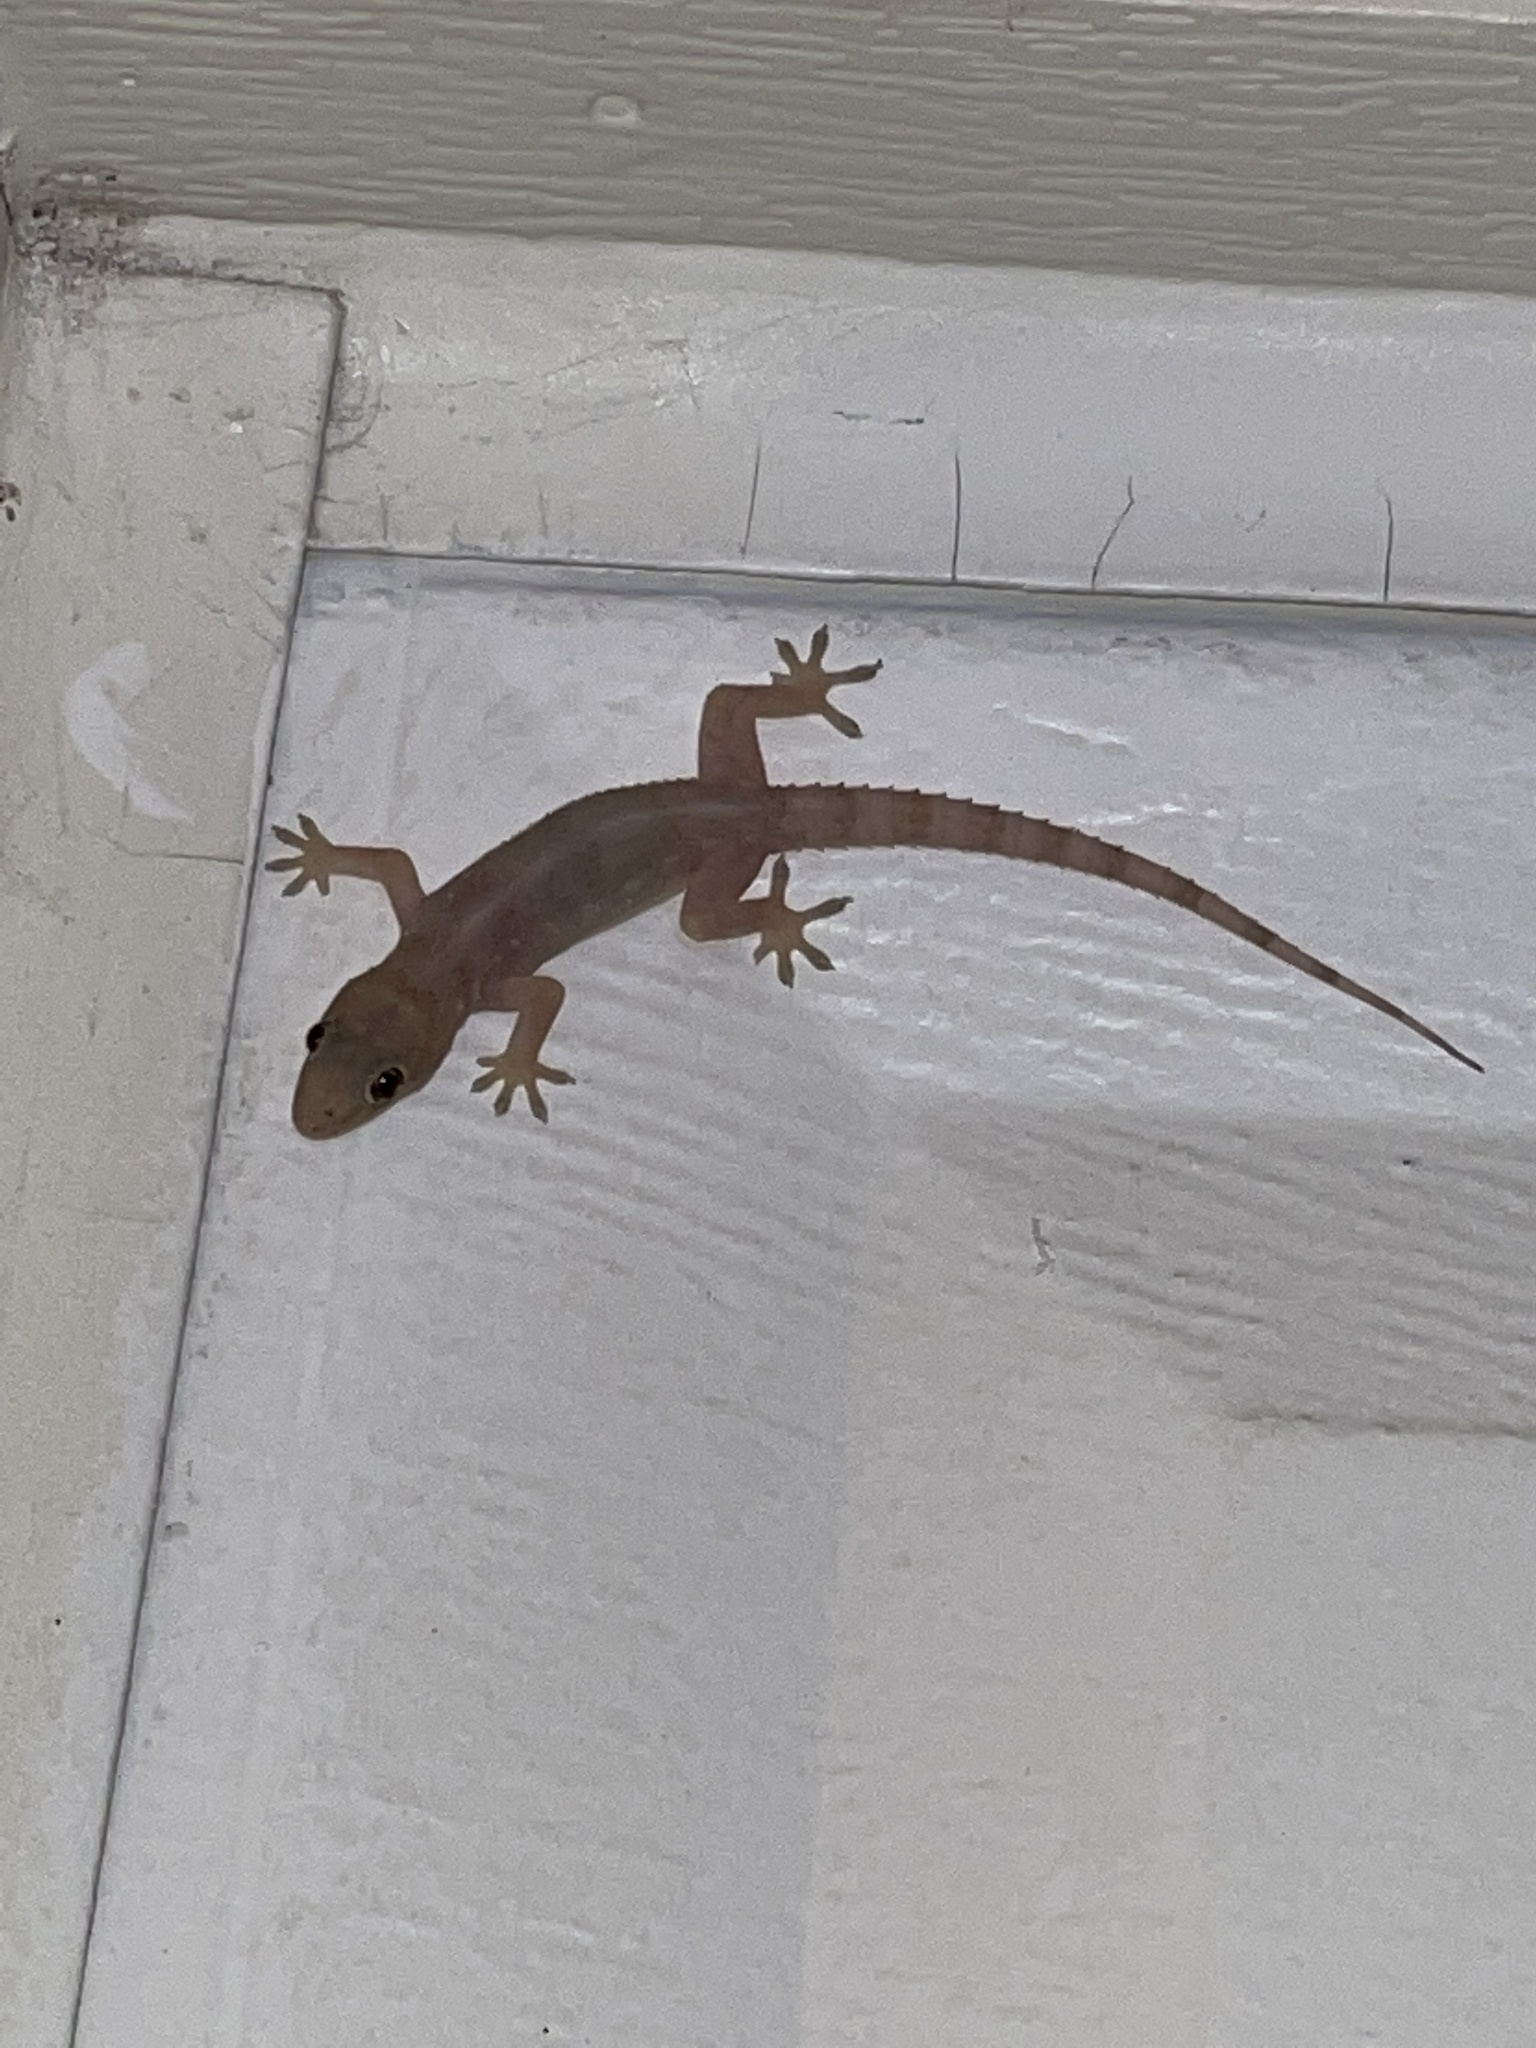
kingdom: Animalia
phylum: Chordata
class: Squamata
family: Gekkonidae
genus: Hemidactylus
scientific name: Hemidactylus mabouia
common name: House gecko
